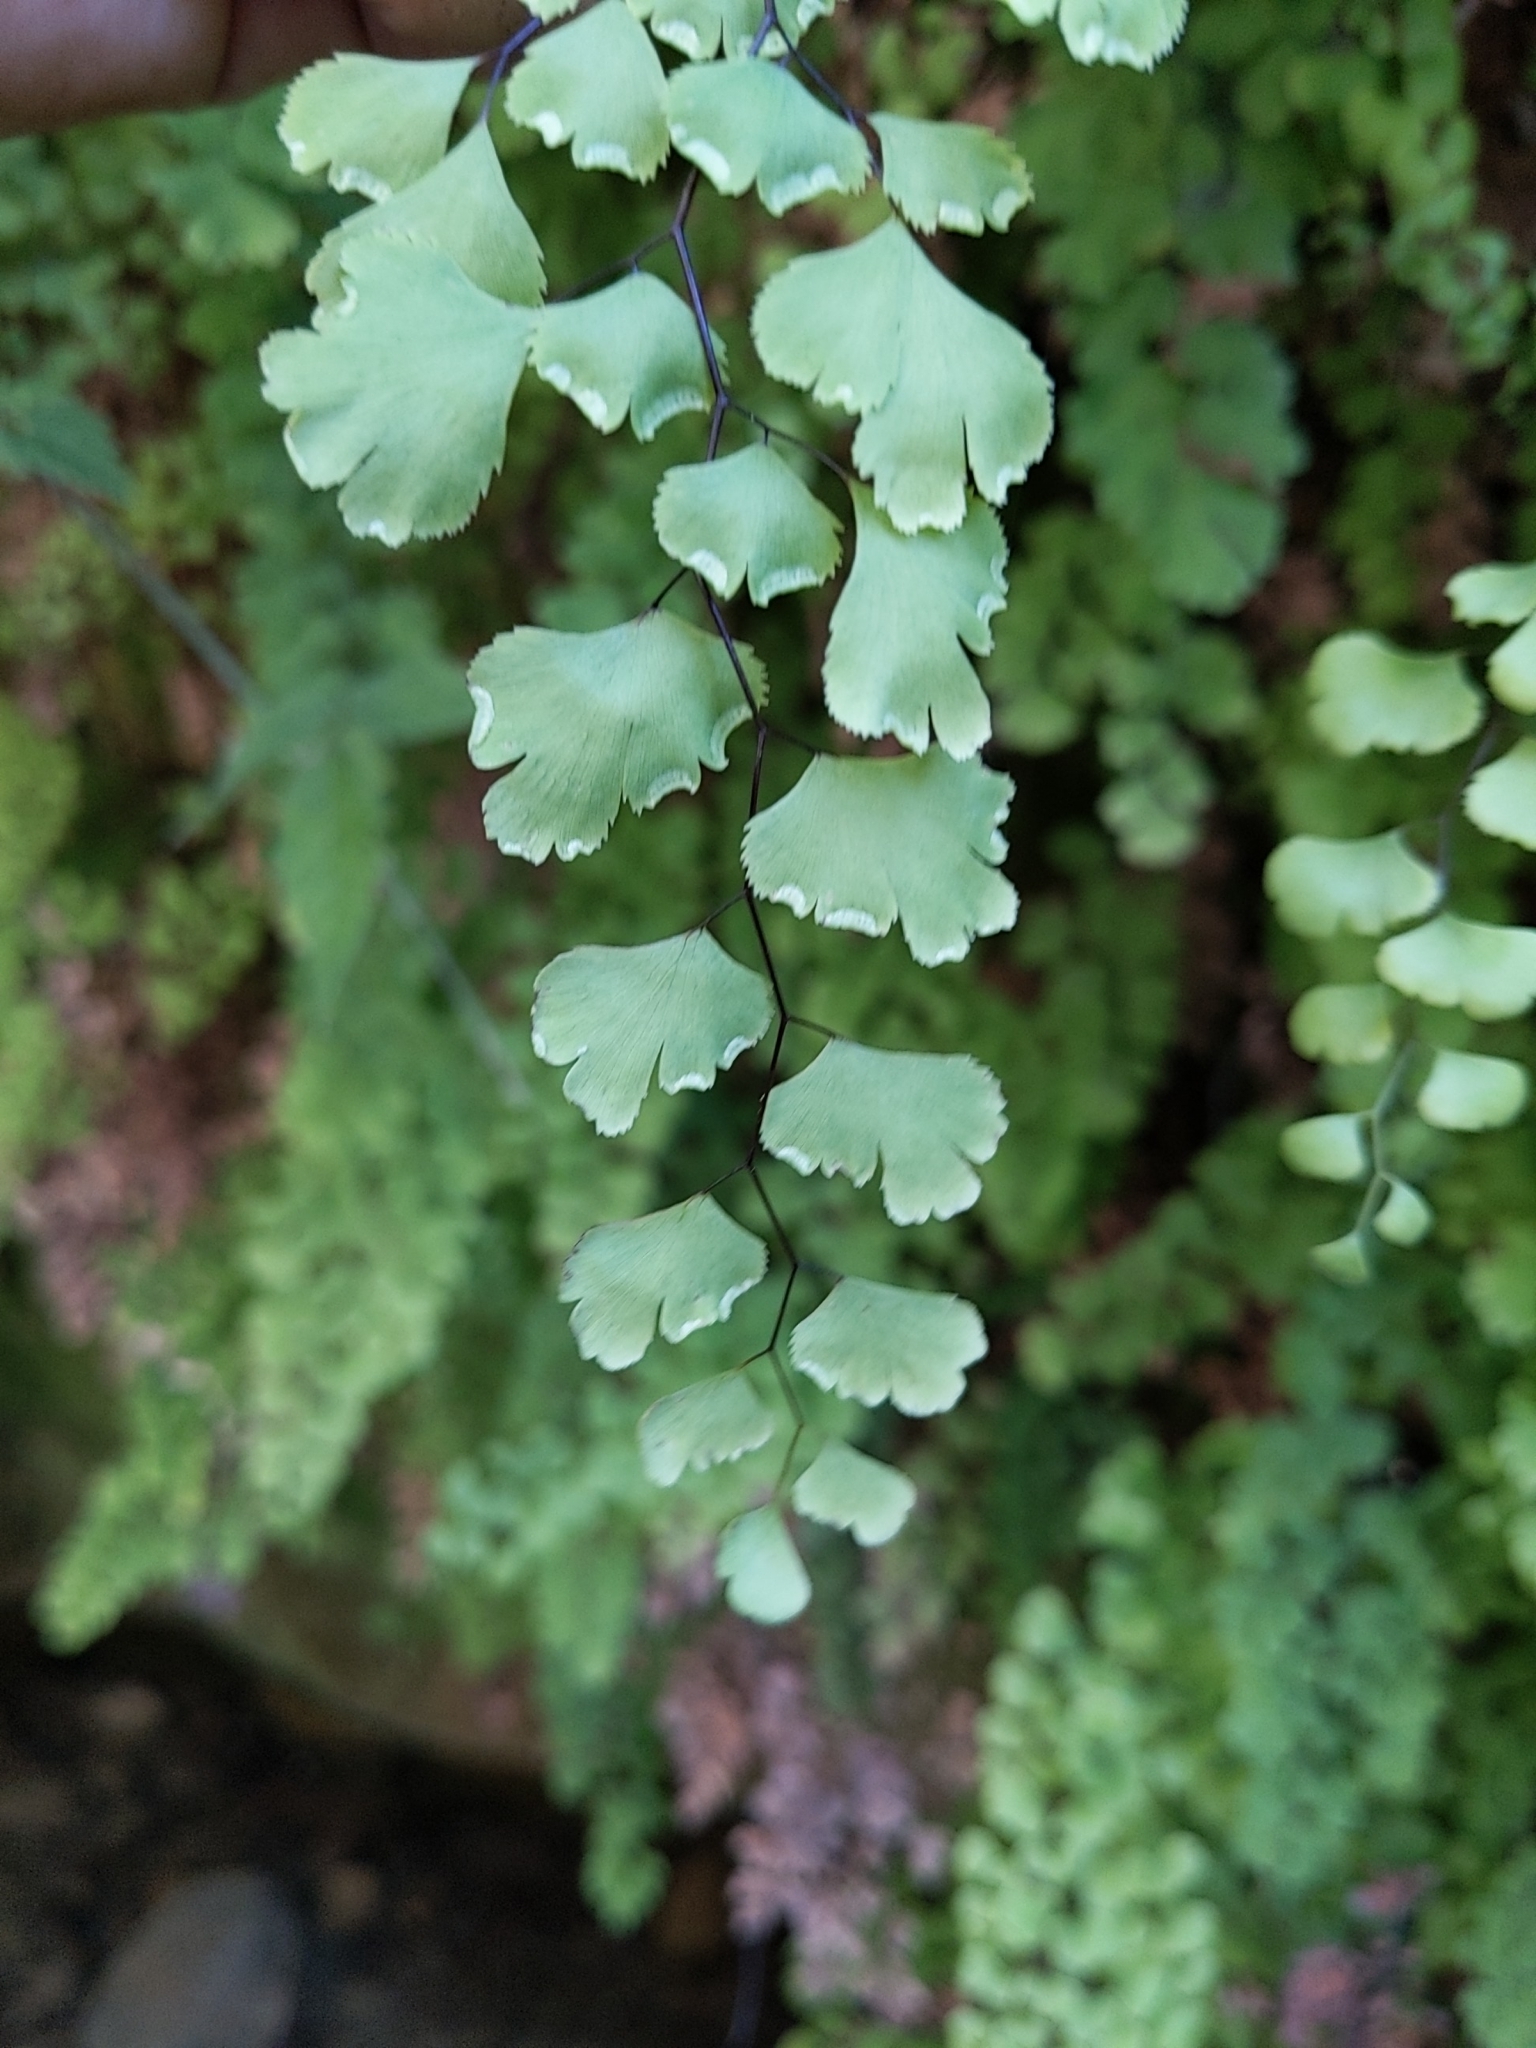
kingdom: Plantae
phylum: Tracheophyta
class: Polypodiopsida
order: Polypodiales
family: Pteridaceae
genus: Adiantum
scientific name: Adiantum capillus-veneris
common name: Maidenhair fern
